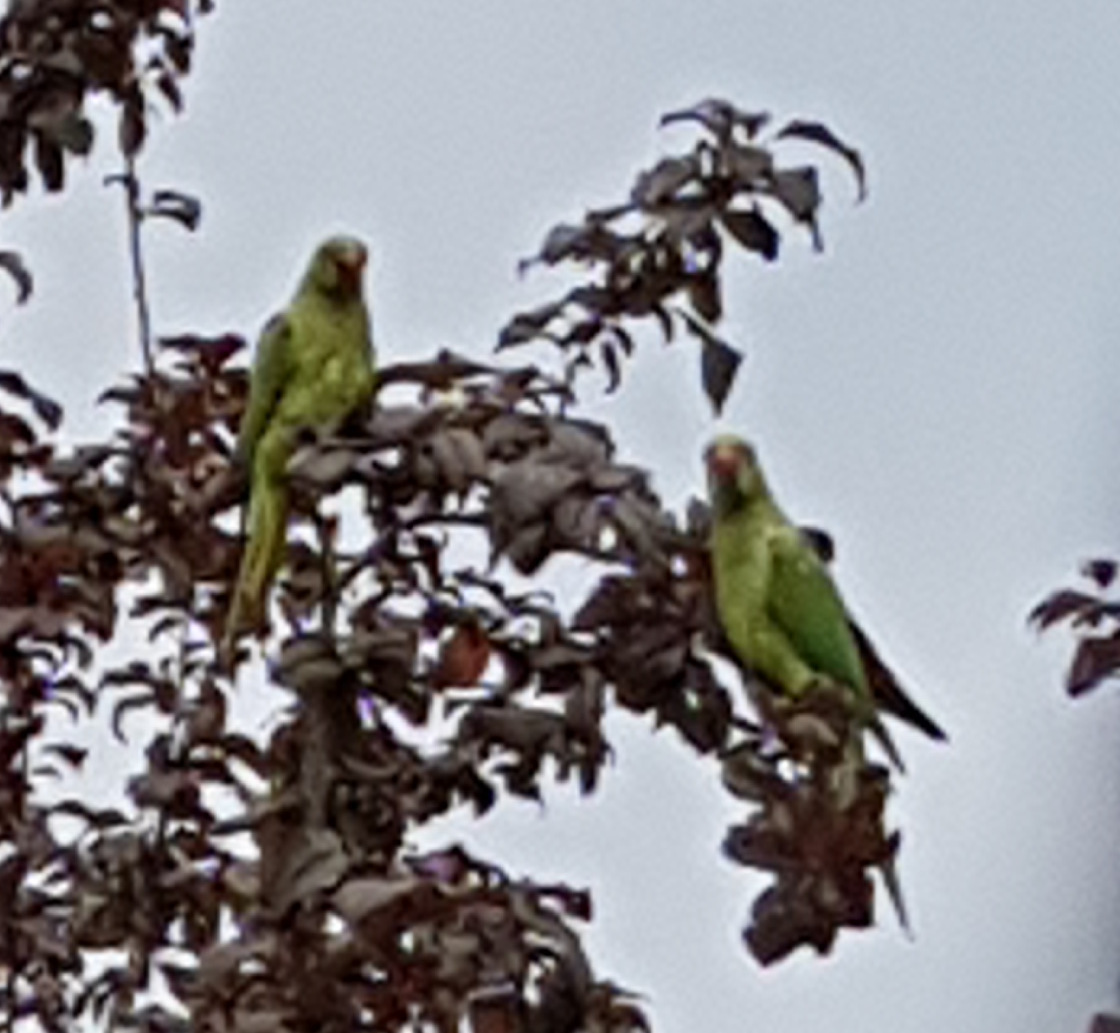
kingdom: Animalia
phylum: Chordata
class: Aves
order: Psittaciformes
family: Psittacidae
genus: Psittacula
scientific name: Psittacula krameri
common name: Rose-ringed parakeet
